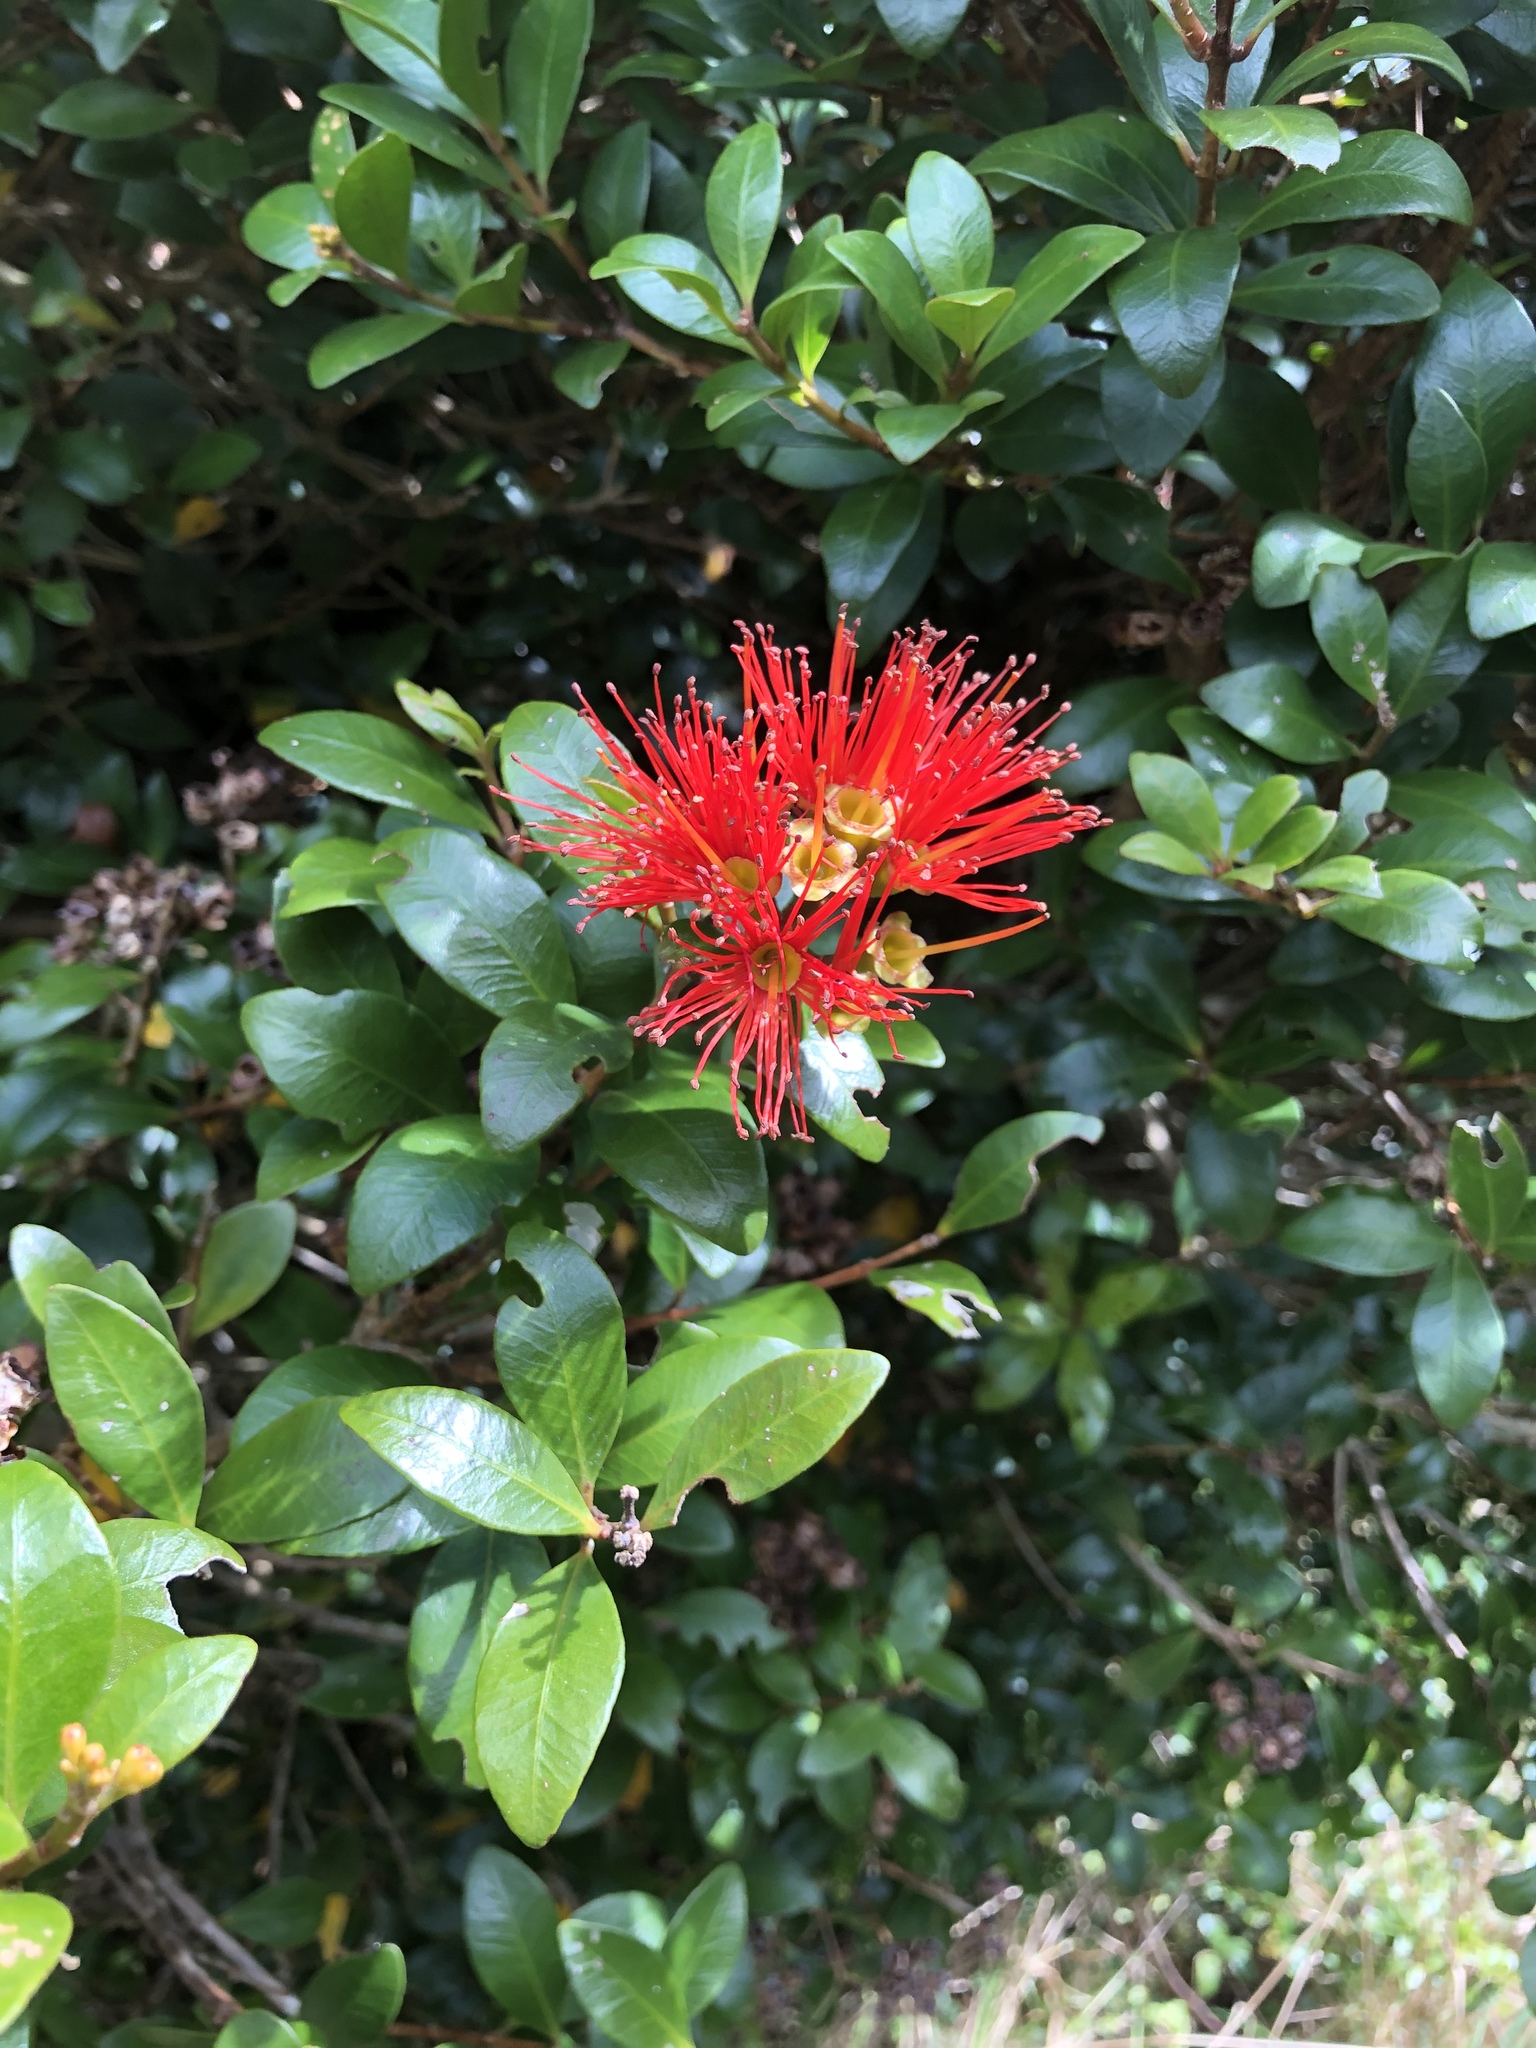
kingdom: Plantae
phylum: Tracheophyta
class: Magnoliopsida
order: Myrtales
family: Myrtaceae
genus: Metrosideros
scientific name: Metrosideros fulgens
